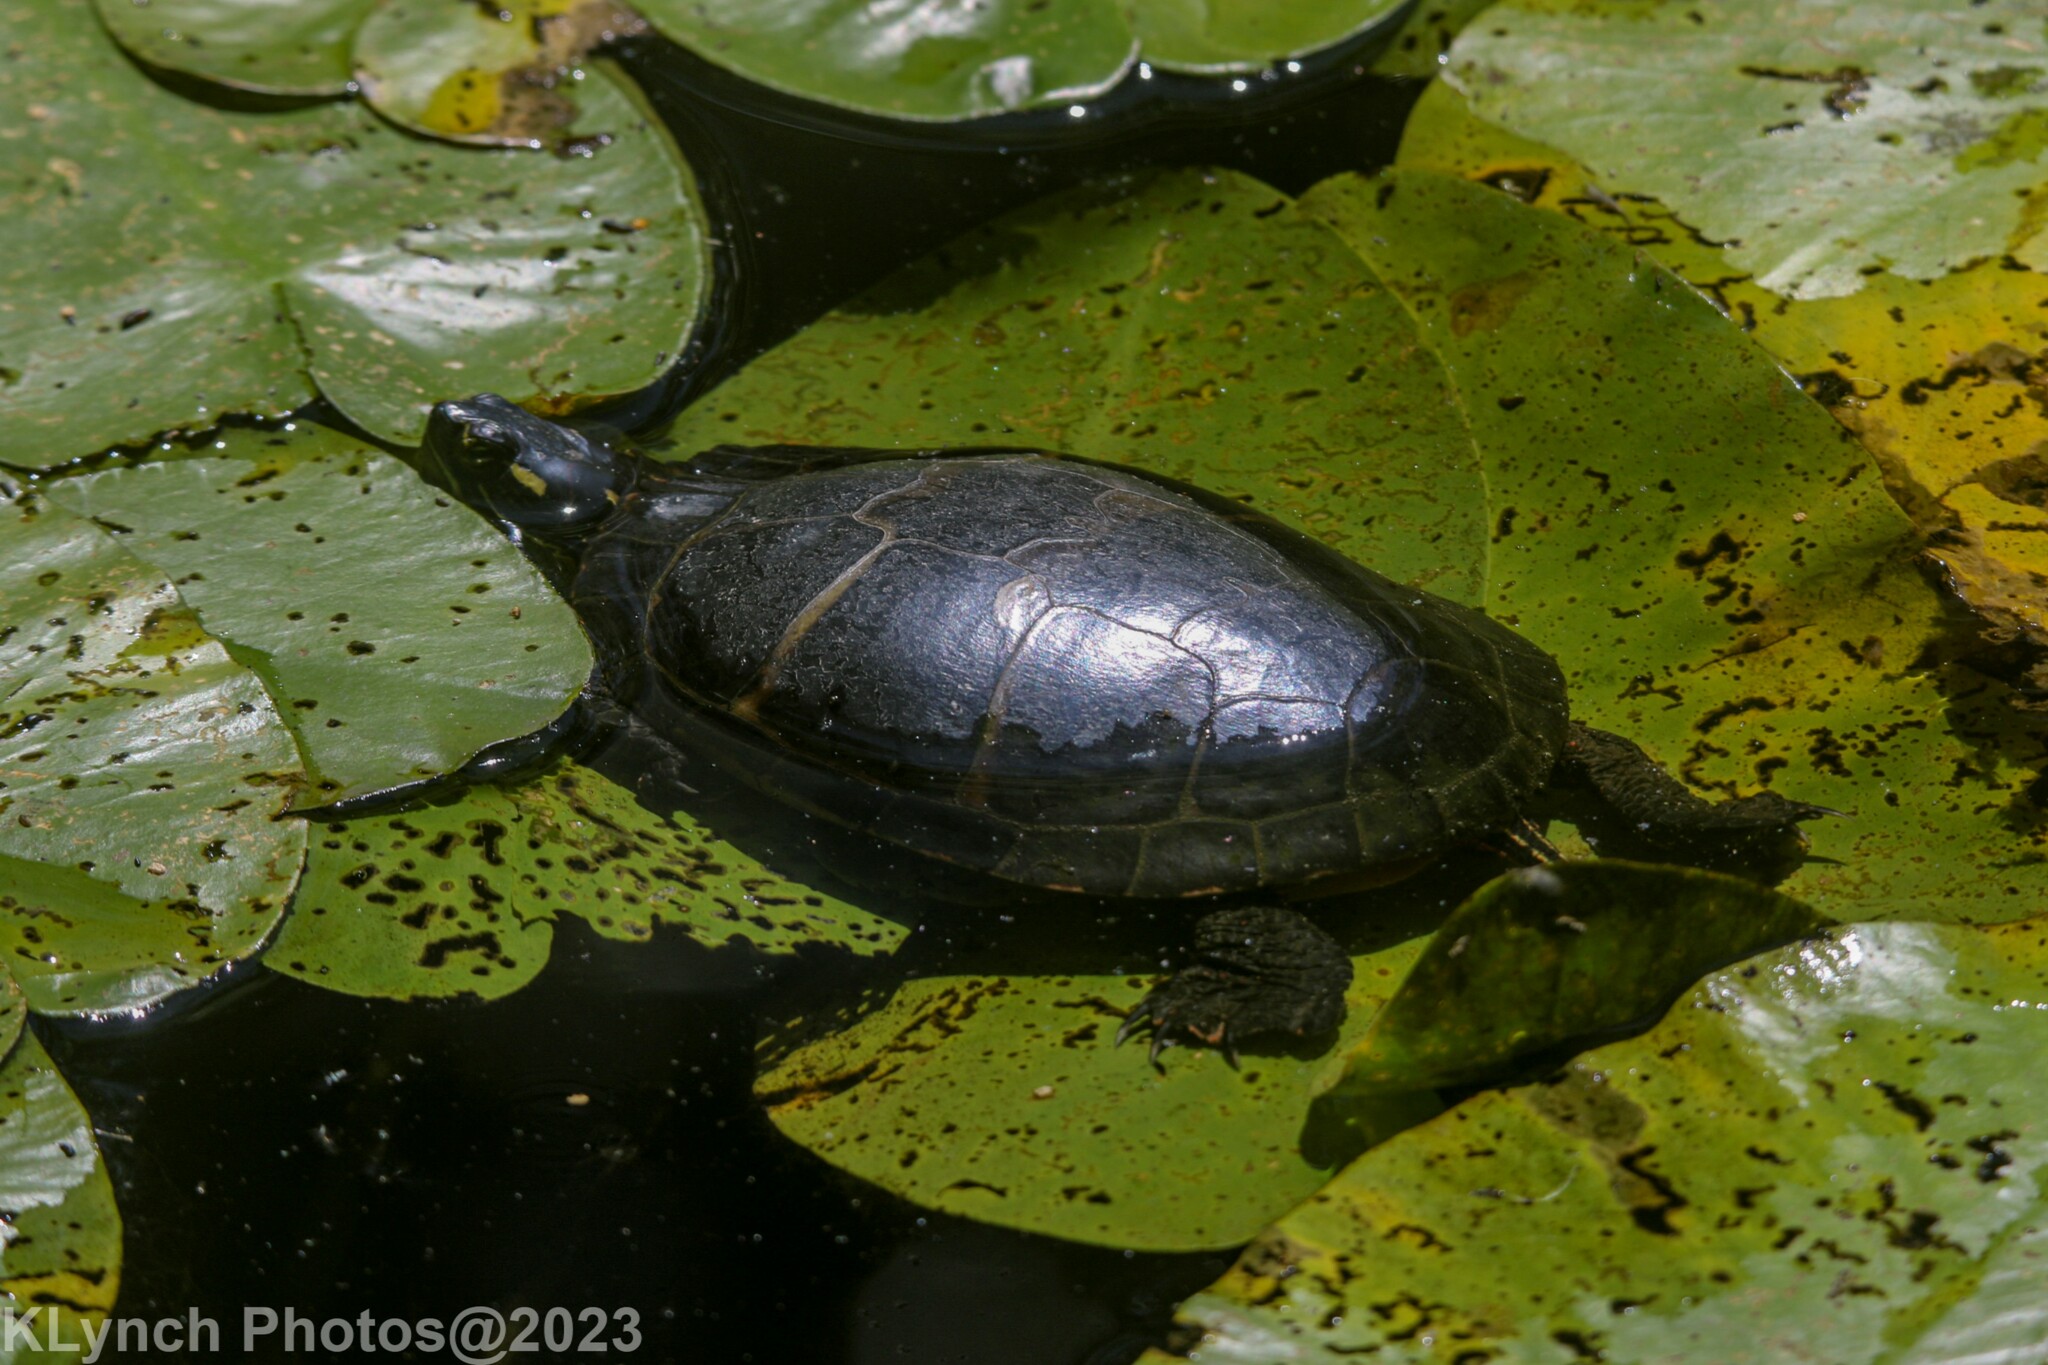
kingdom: Animalia
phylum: Chordata
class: Testudines
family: Emydidae
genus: Chrysemys
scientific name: Chrysemys picta
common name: Painted turtle
